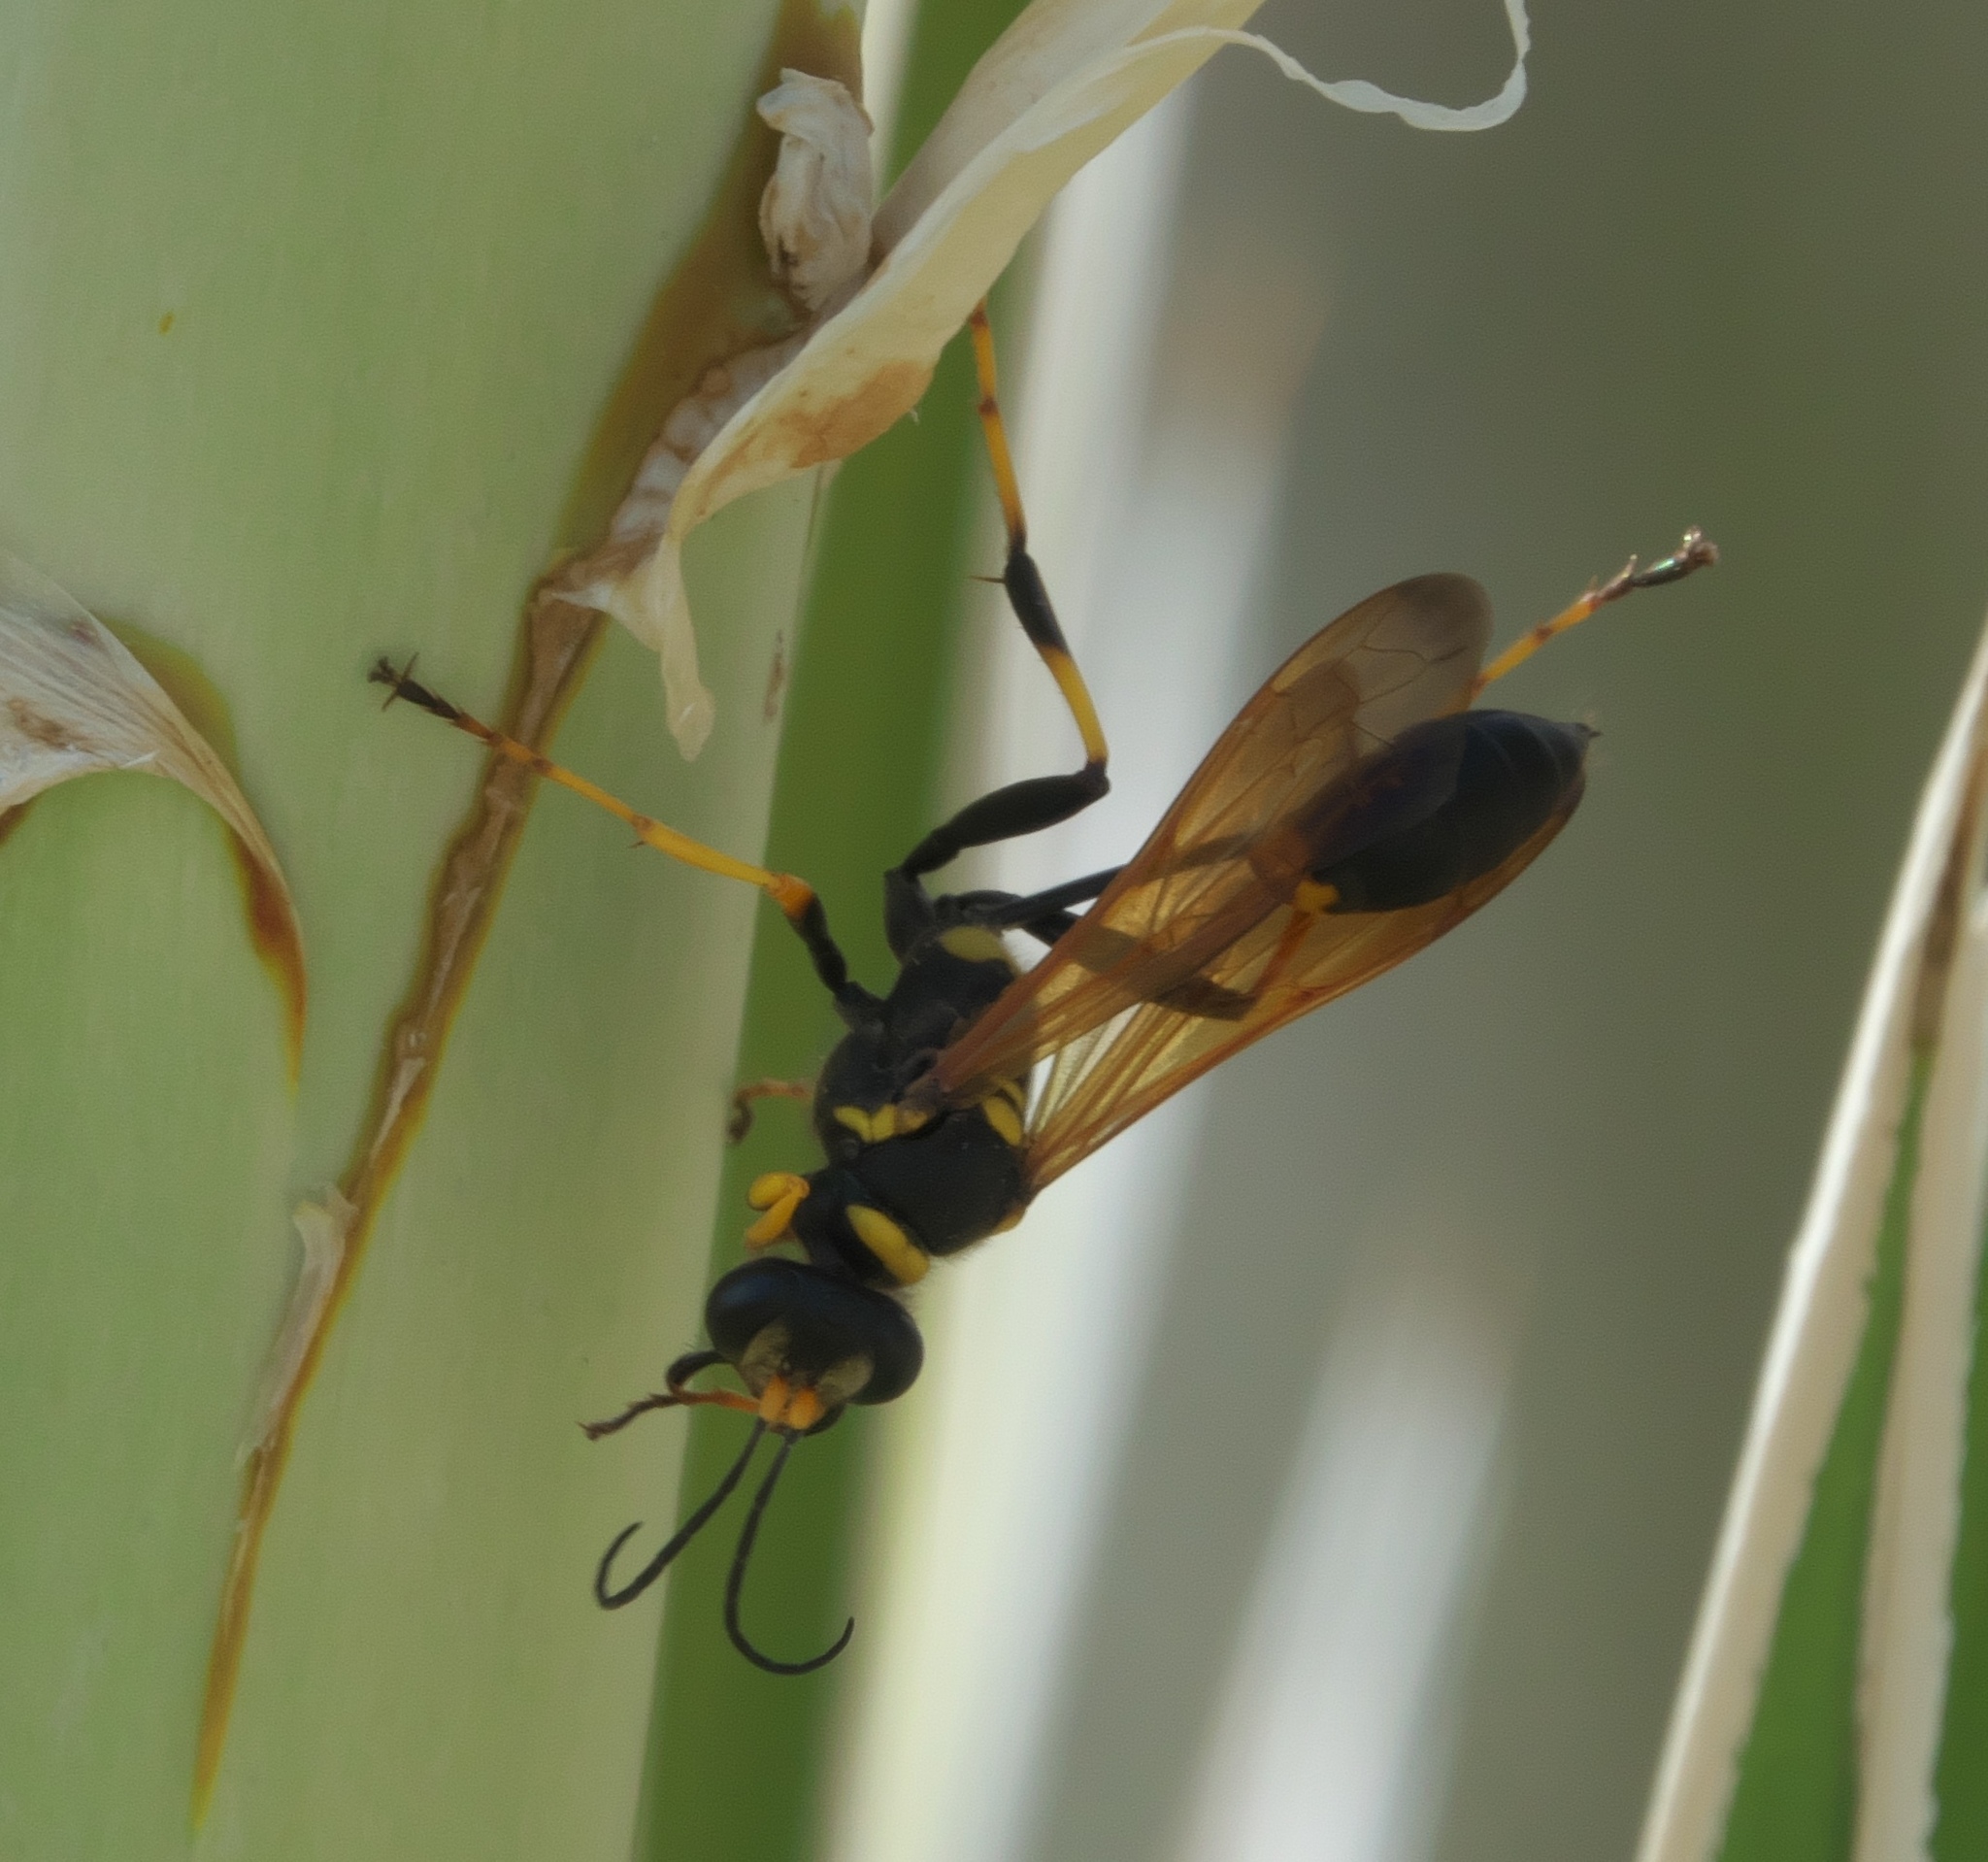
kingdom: Animalia
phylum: Arthropoda
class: Insecta
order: Hymenoptera
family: Sphecidae
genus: Sceliphron
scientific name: Sceliphron caementarium
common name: Mud dauber
